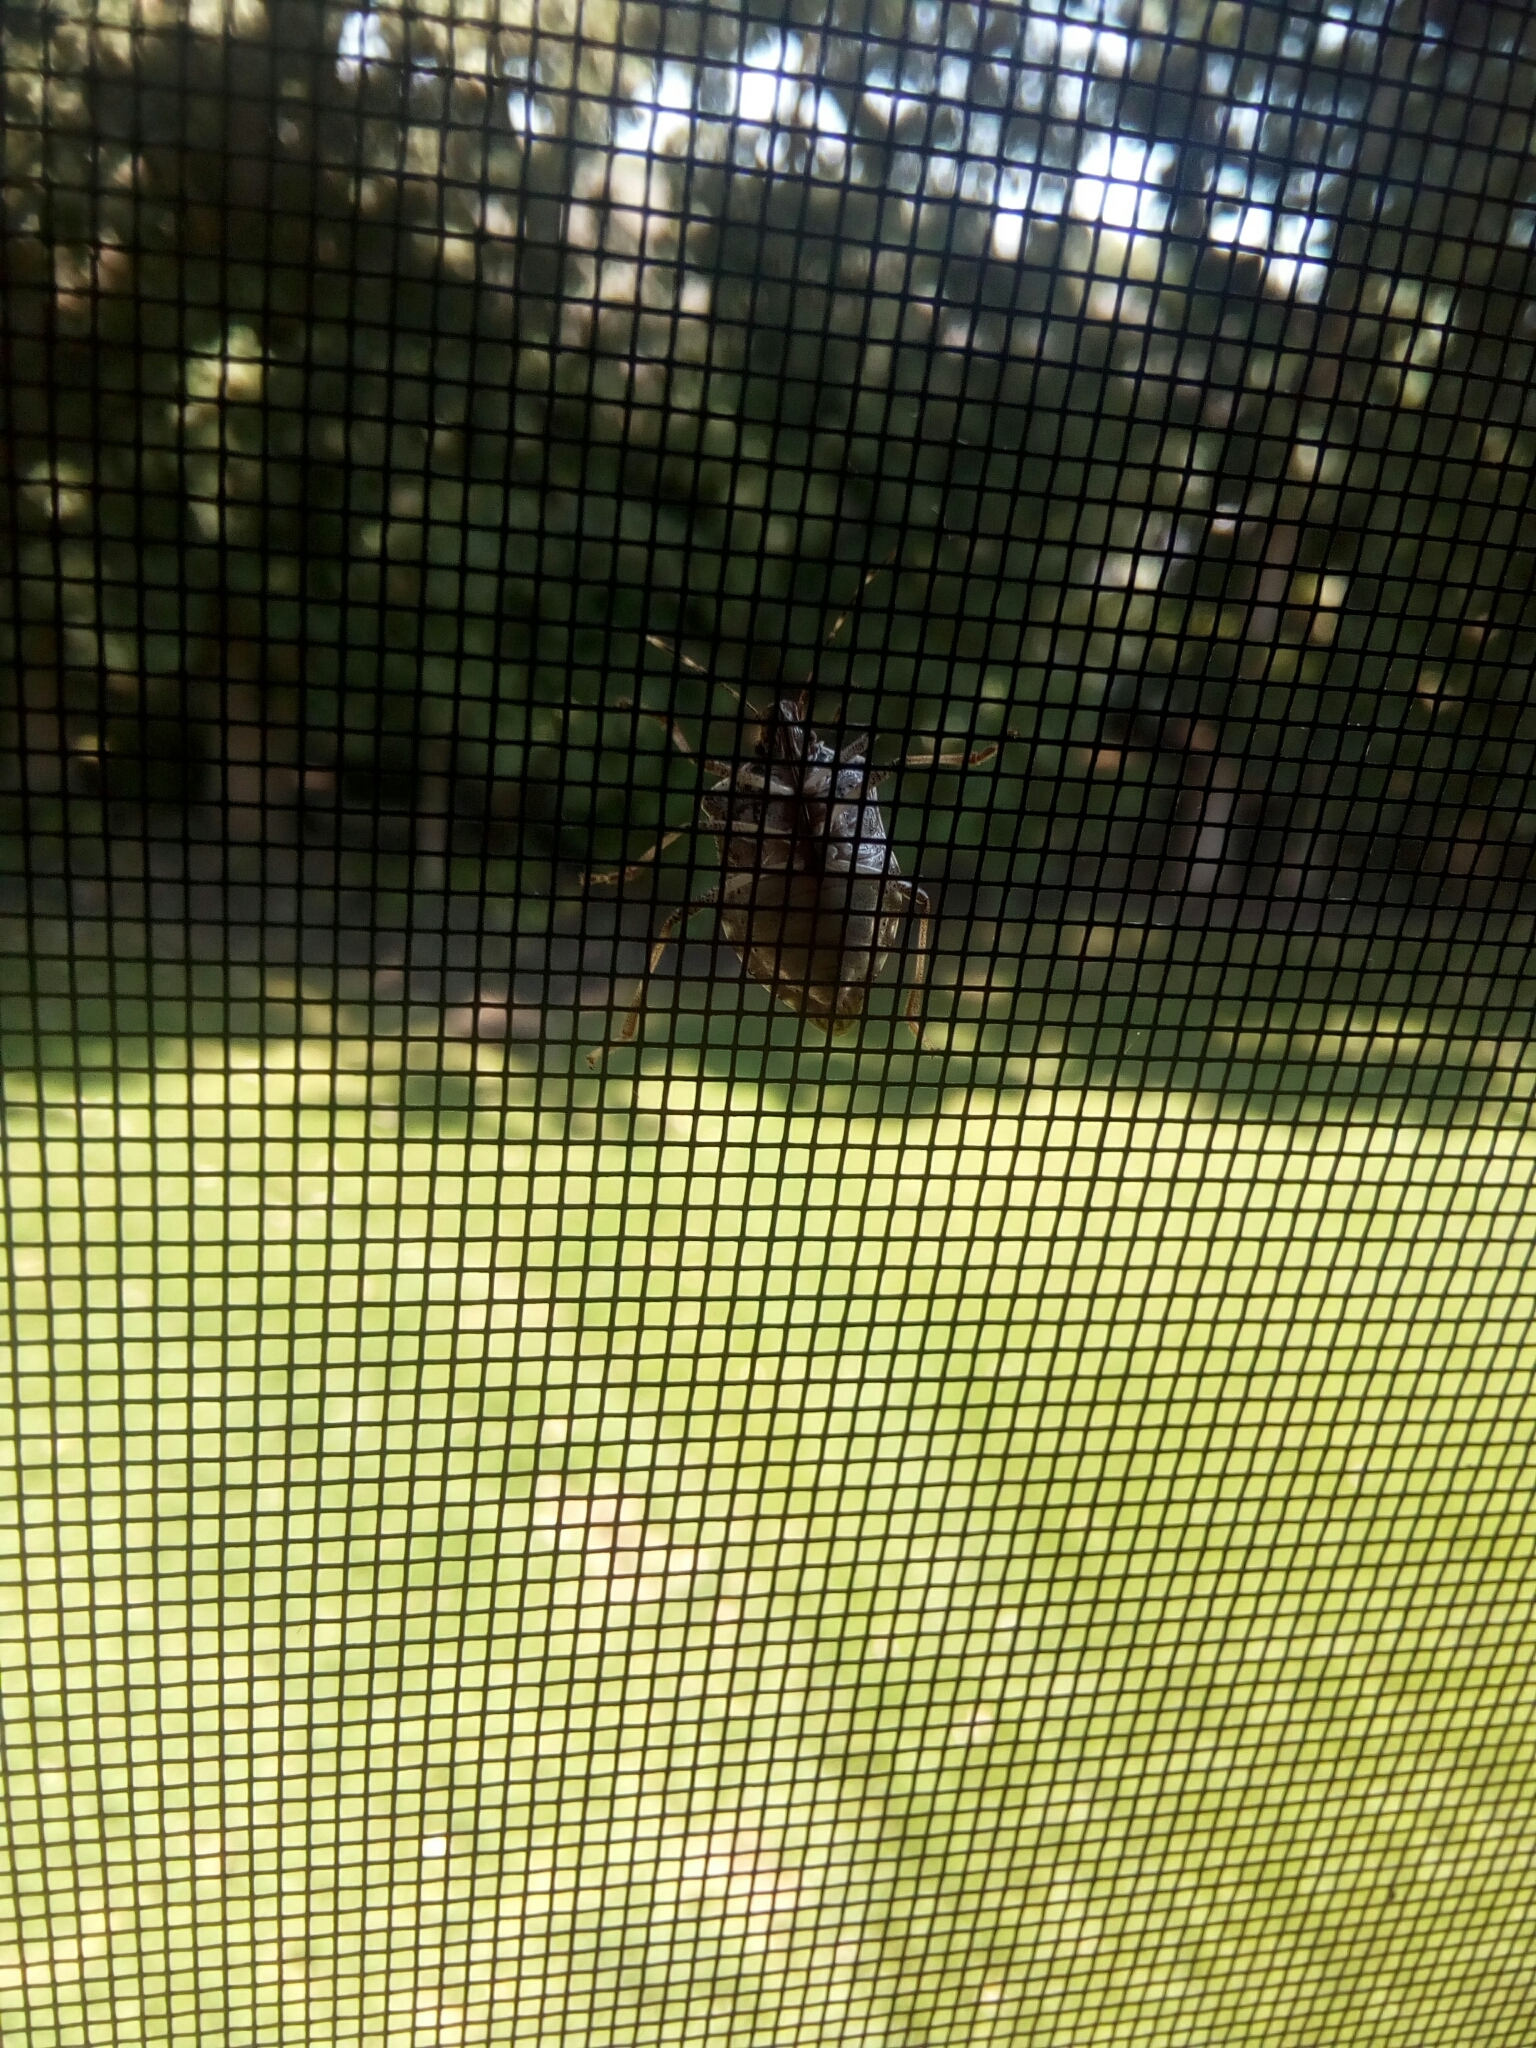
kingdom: Animalia
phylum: Arthropoda
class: Insecta
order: Hemiptera
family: Pentatomidae
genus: Halyomorpha
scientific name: Halyomorpha halys
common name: Brown marmorated stink bug
